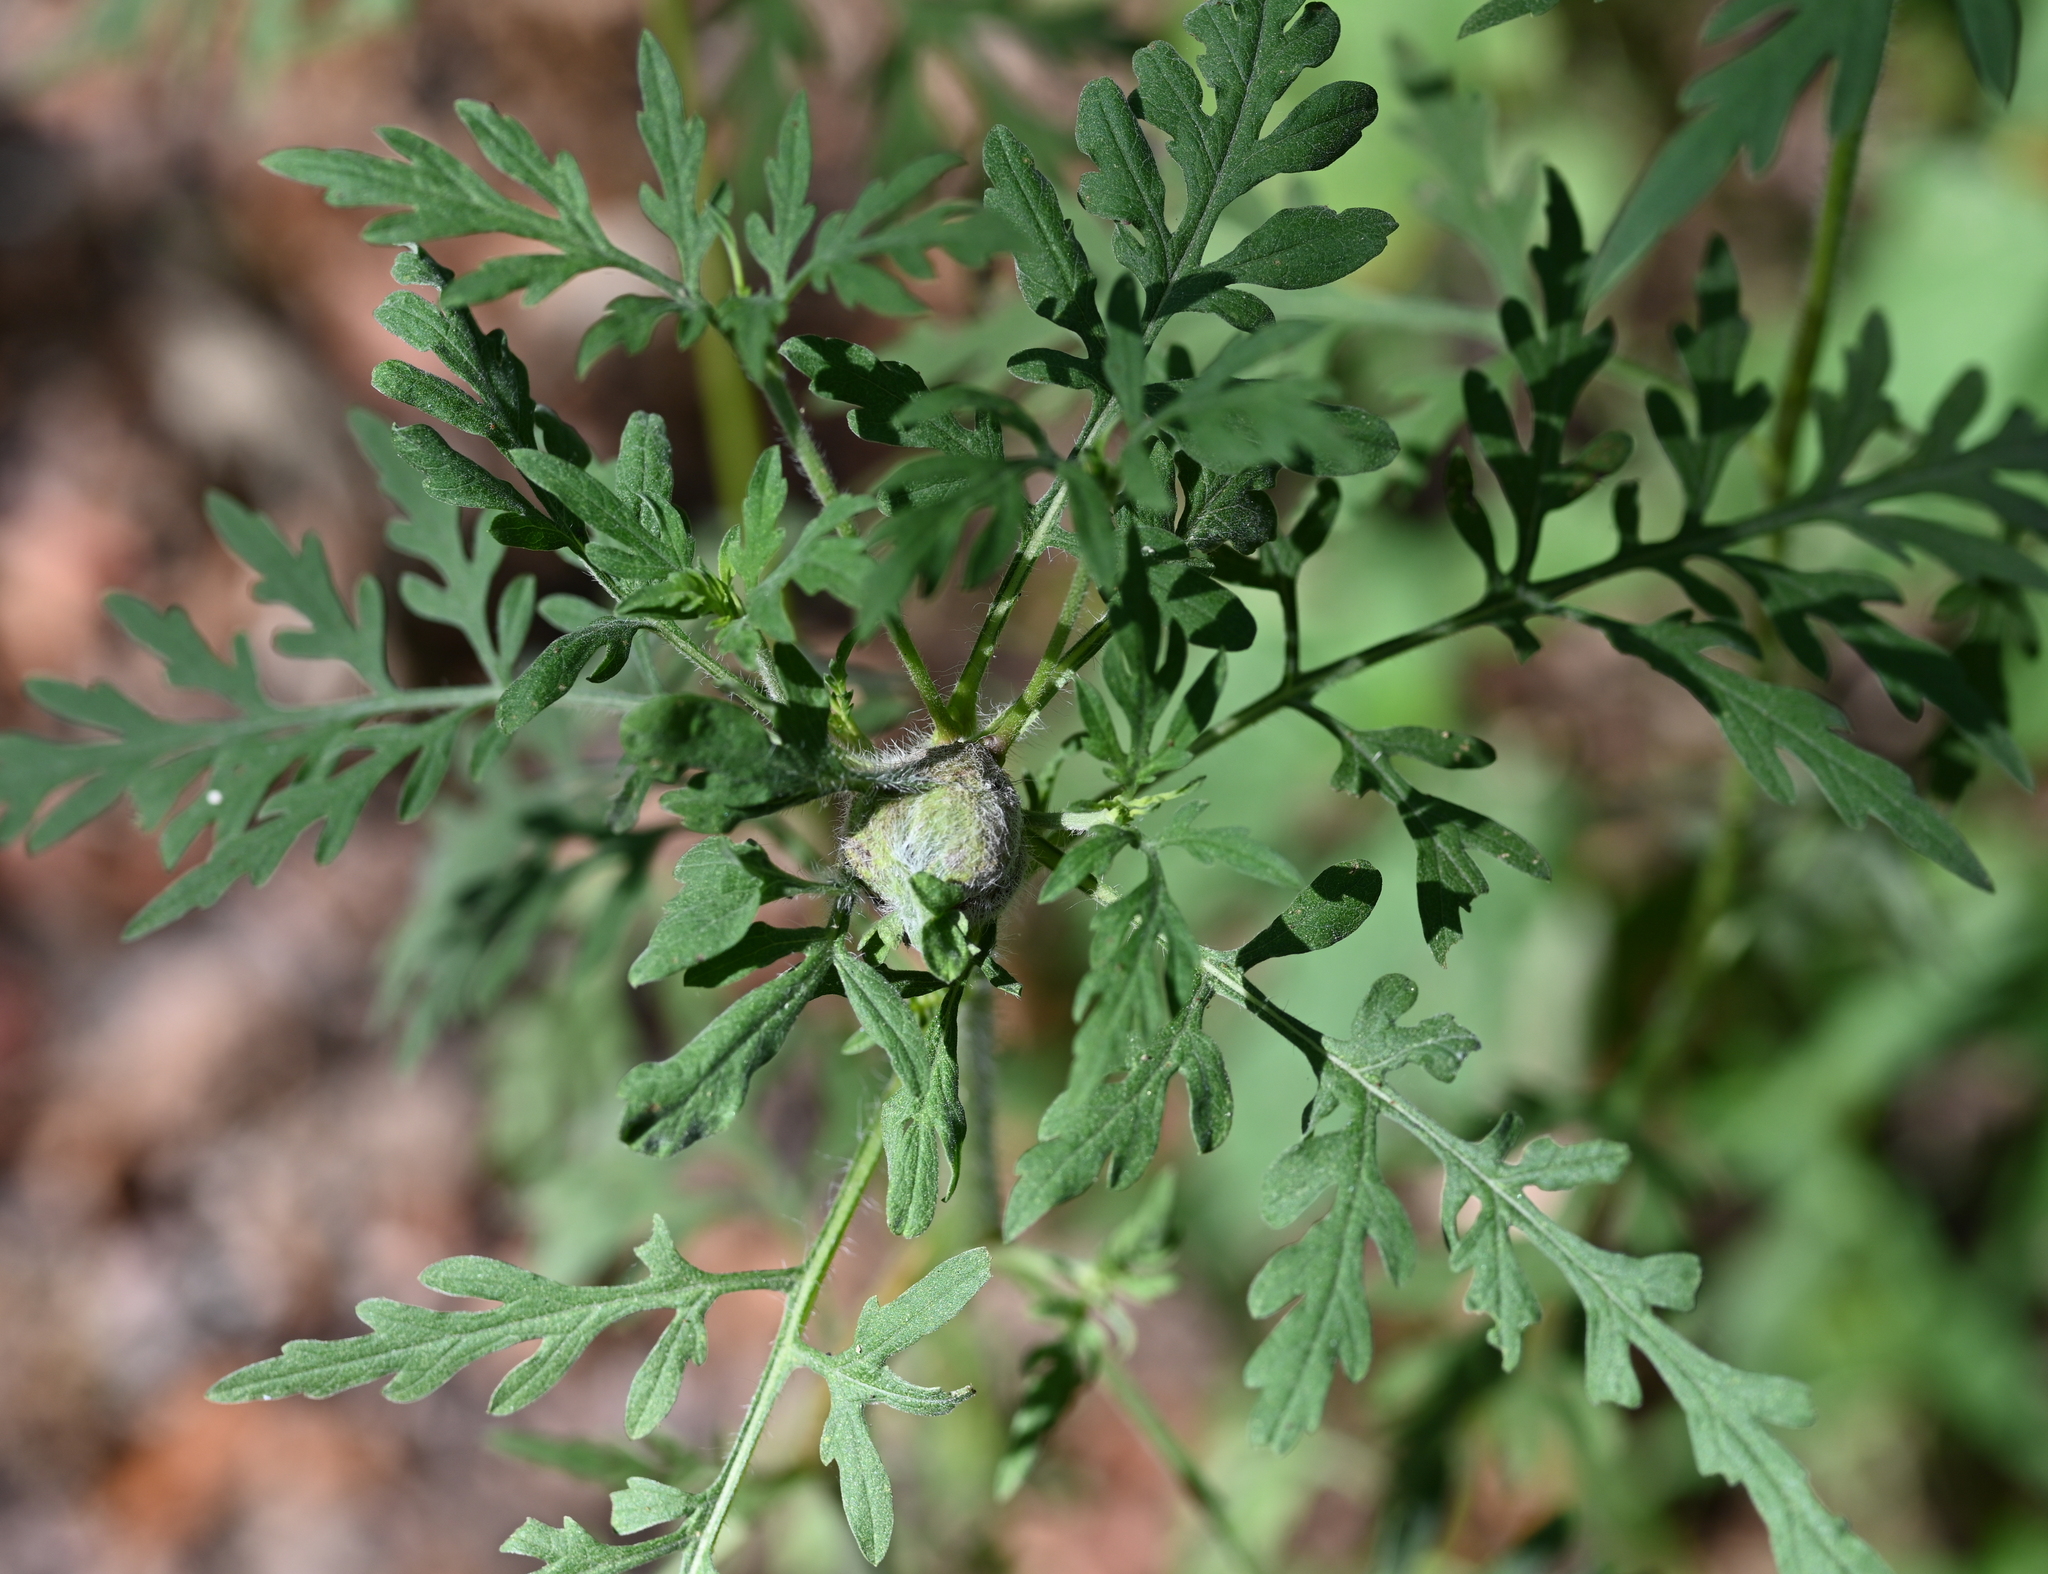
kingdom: Animalia
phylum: Arthropoda
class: Insecta
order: Diptera
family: Cecidomyiidae
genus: Asphondylia
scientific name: Asphondylia ambrosiae
